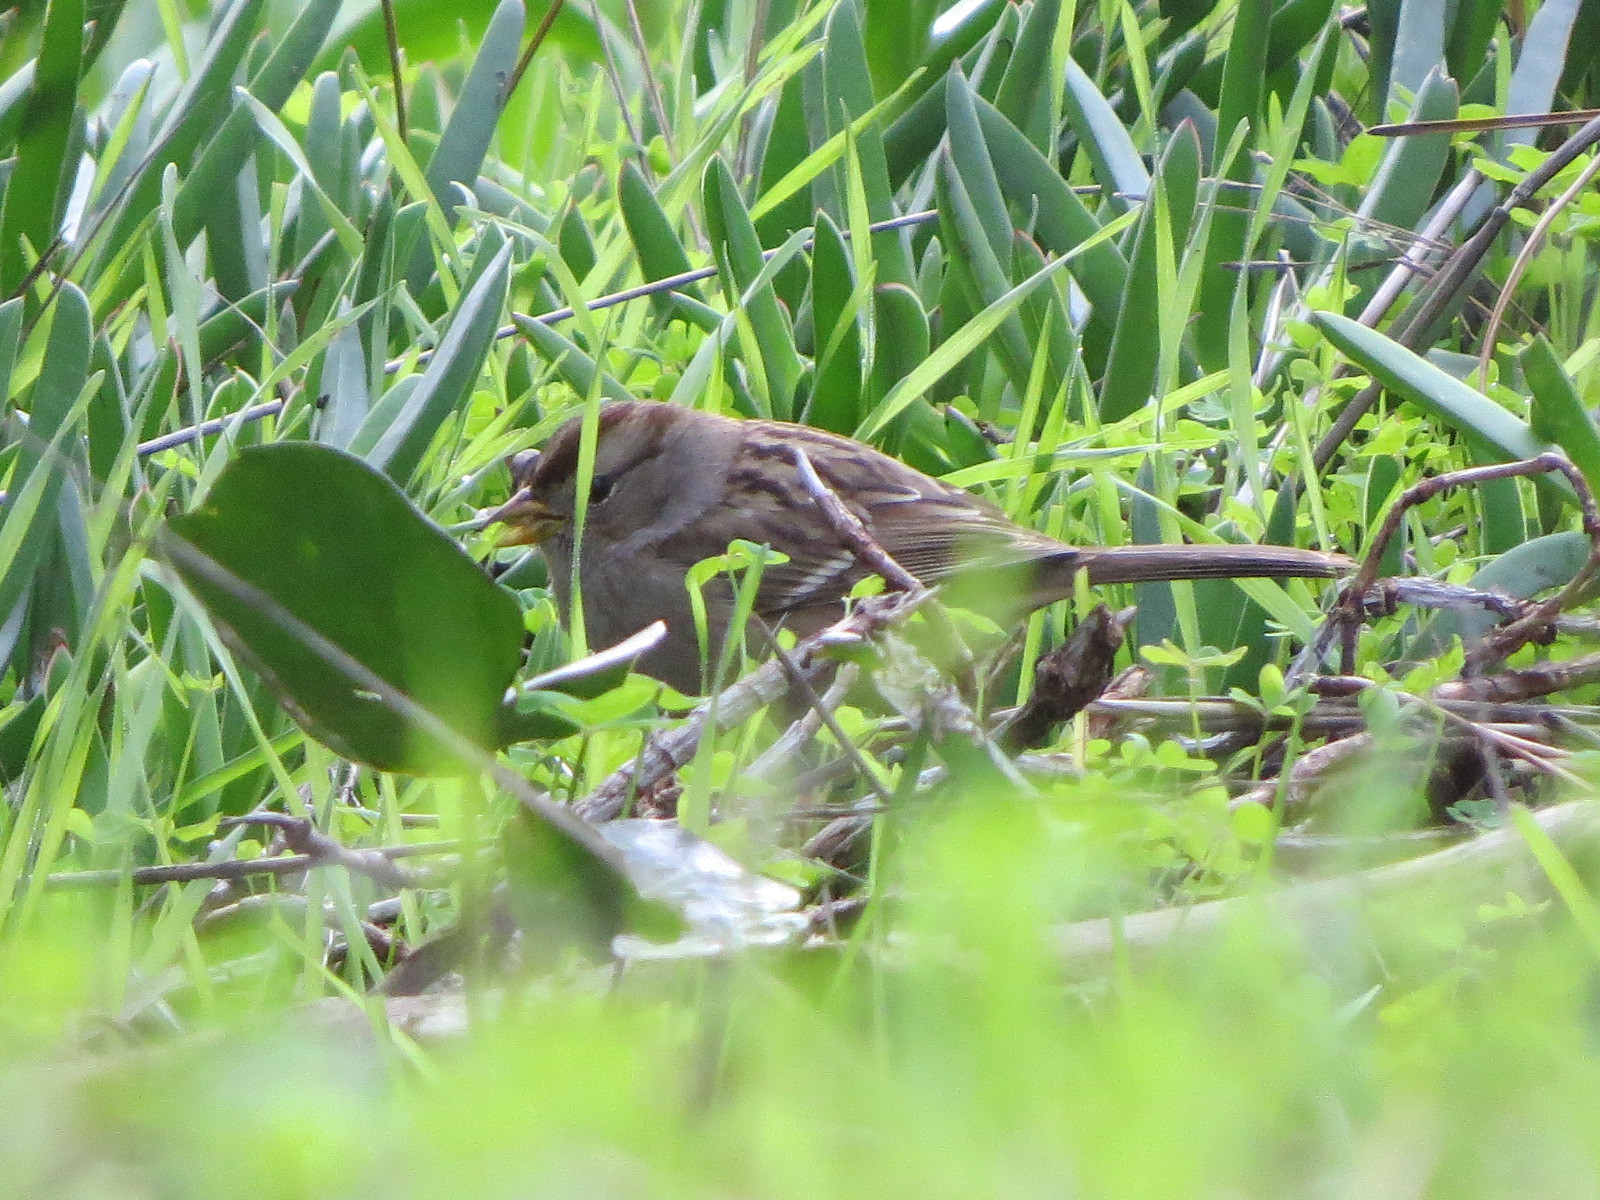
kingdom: Animalia
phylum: Chordata
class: Aves
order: Passeriformes
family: Passerellidae
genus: Zonotrichia
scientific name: Zonotrichia leucophrys
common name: White-crowned sparrow
